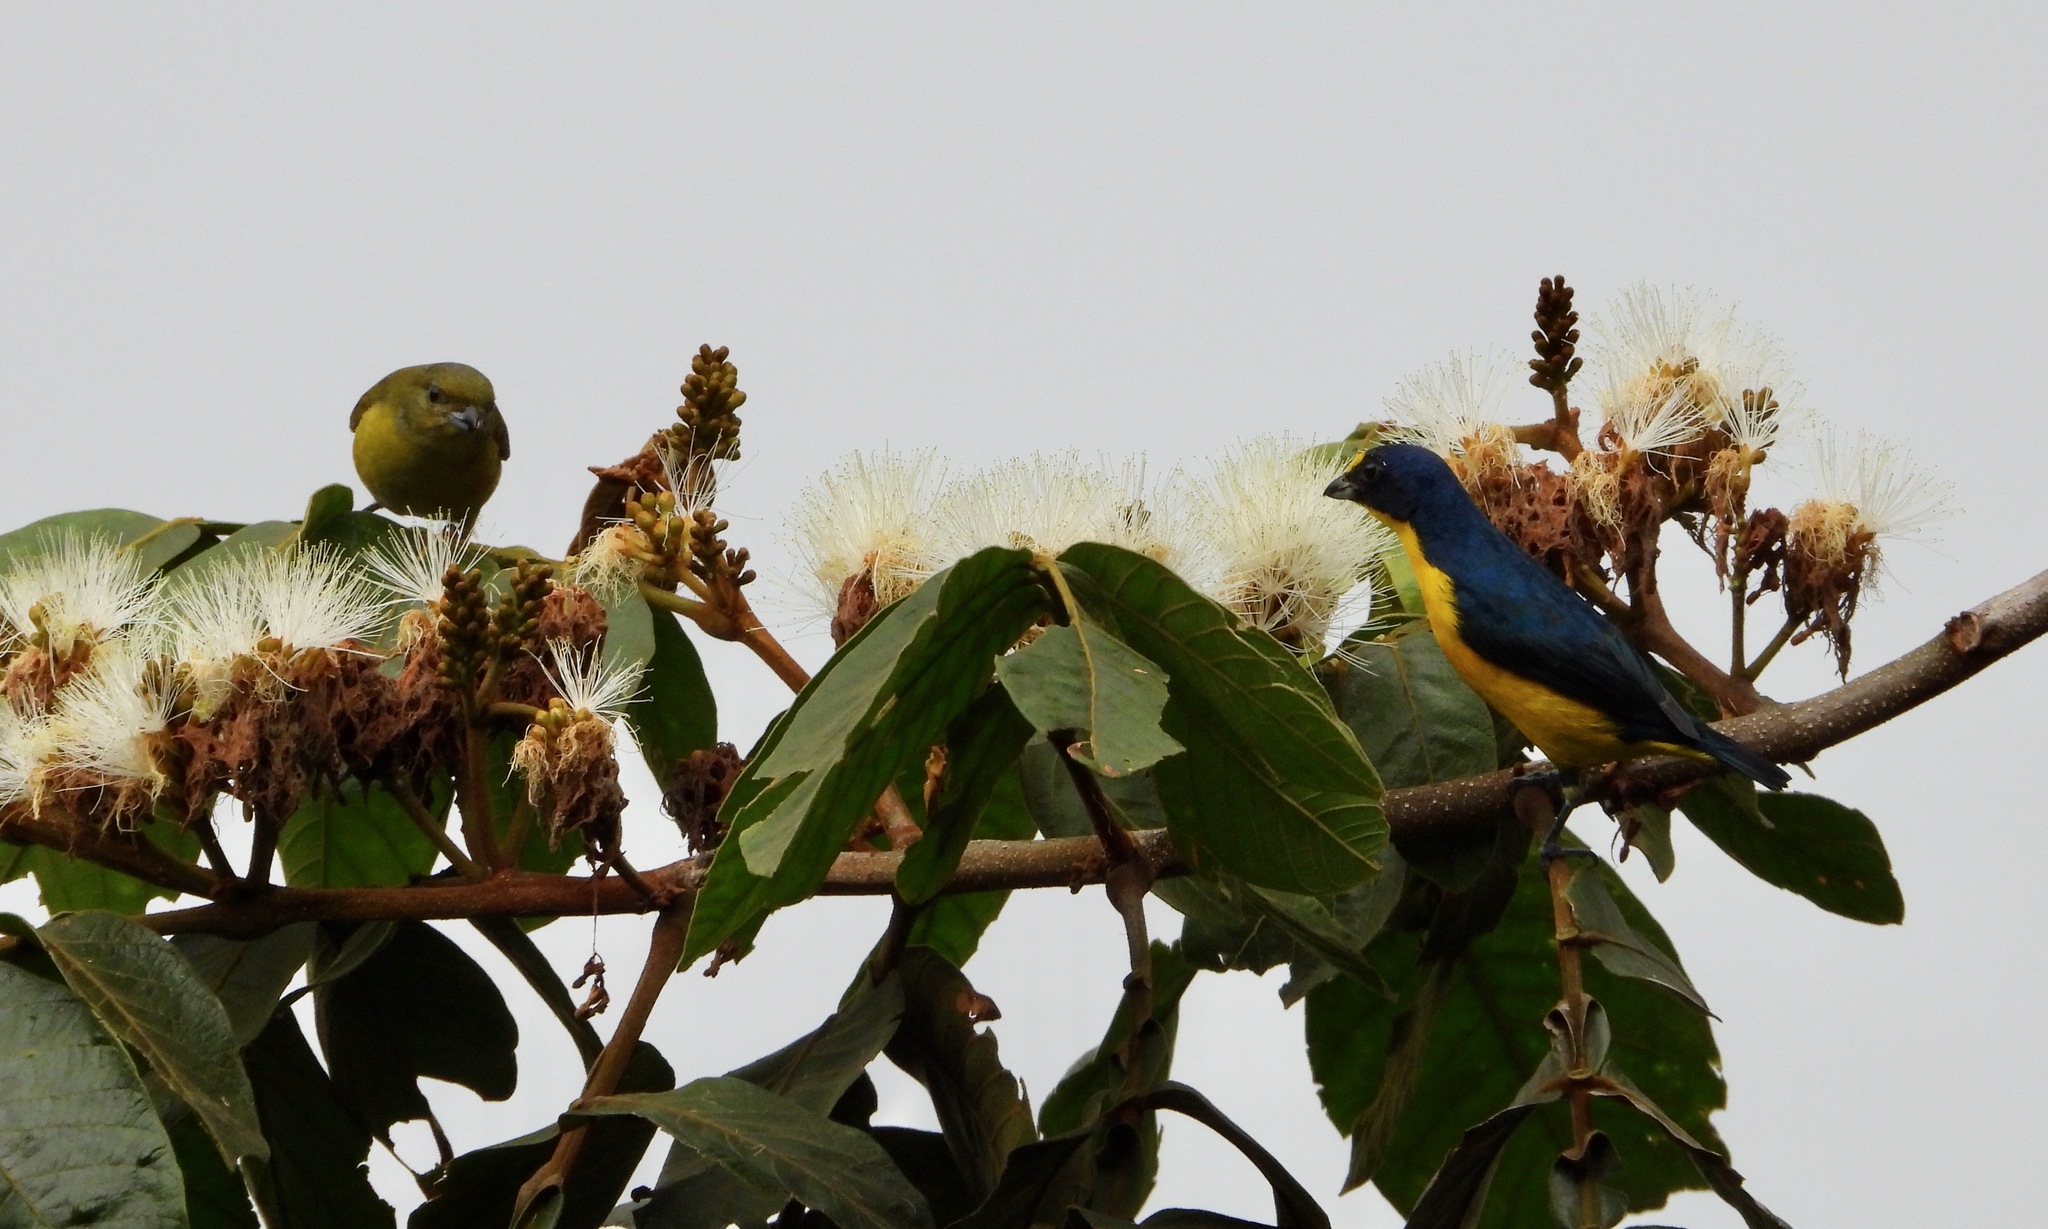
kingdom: Animalia
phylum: Chordata
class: Aves
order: Passeriformes
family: Fringillidae
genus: Euphonia
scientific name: Euphonia hirundinacea
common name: Yellow-throated euphonia
